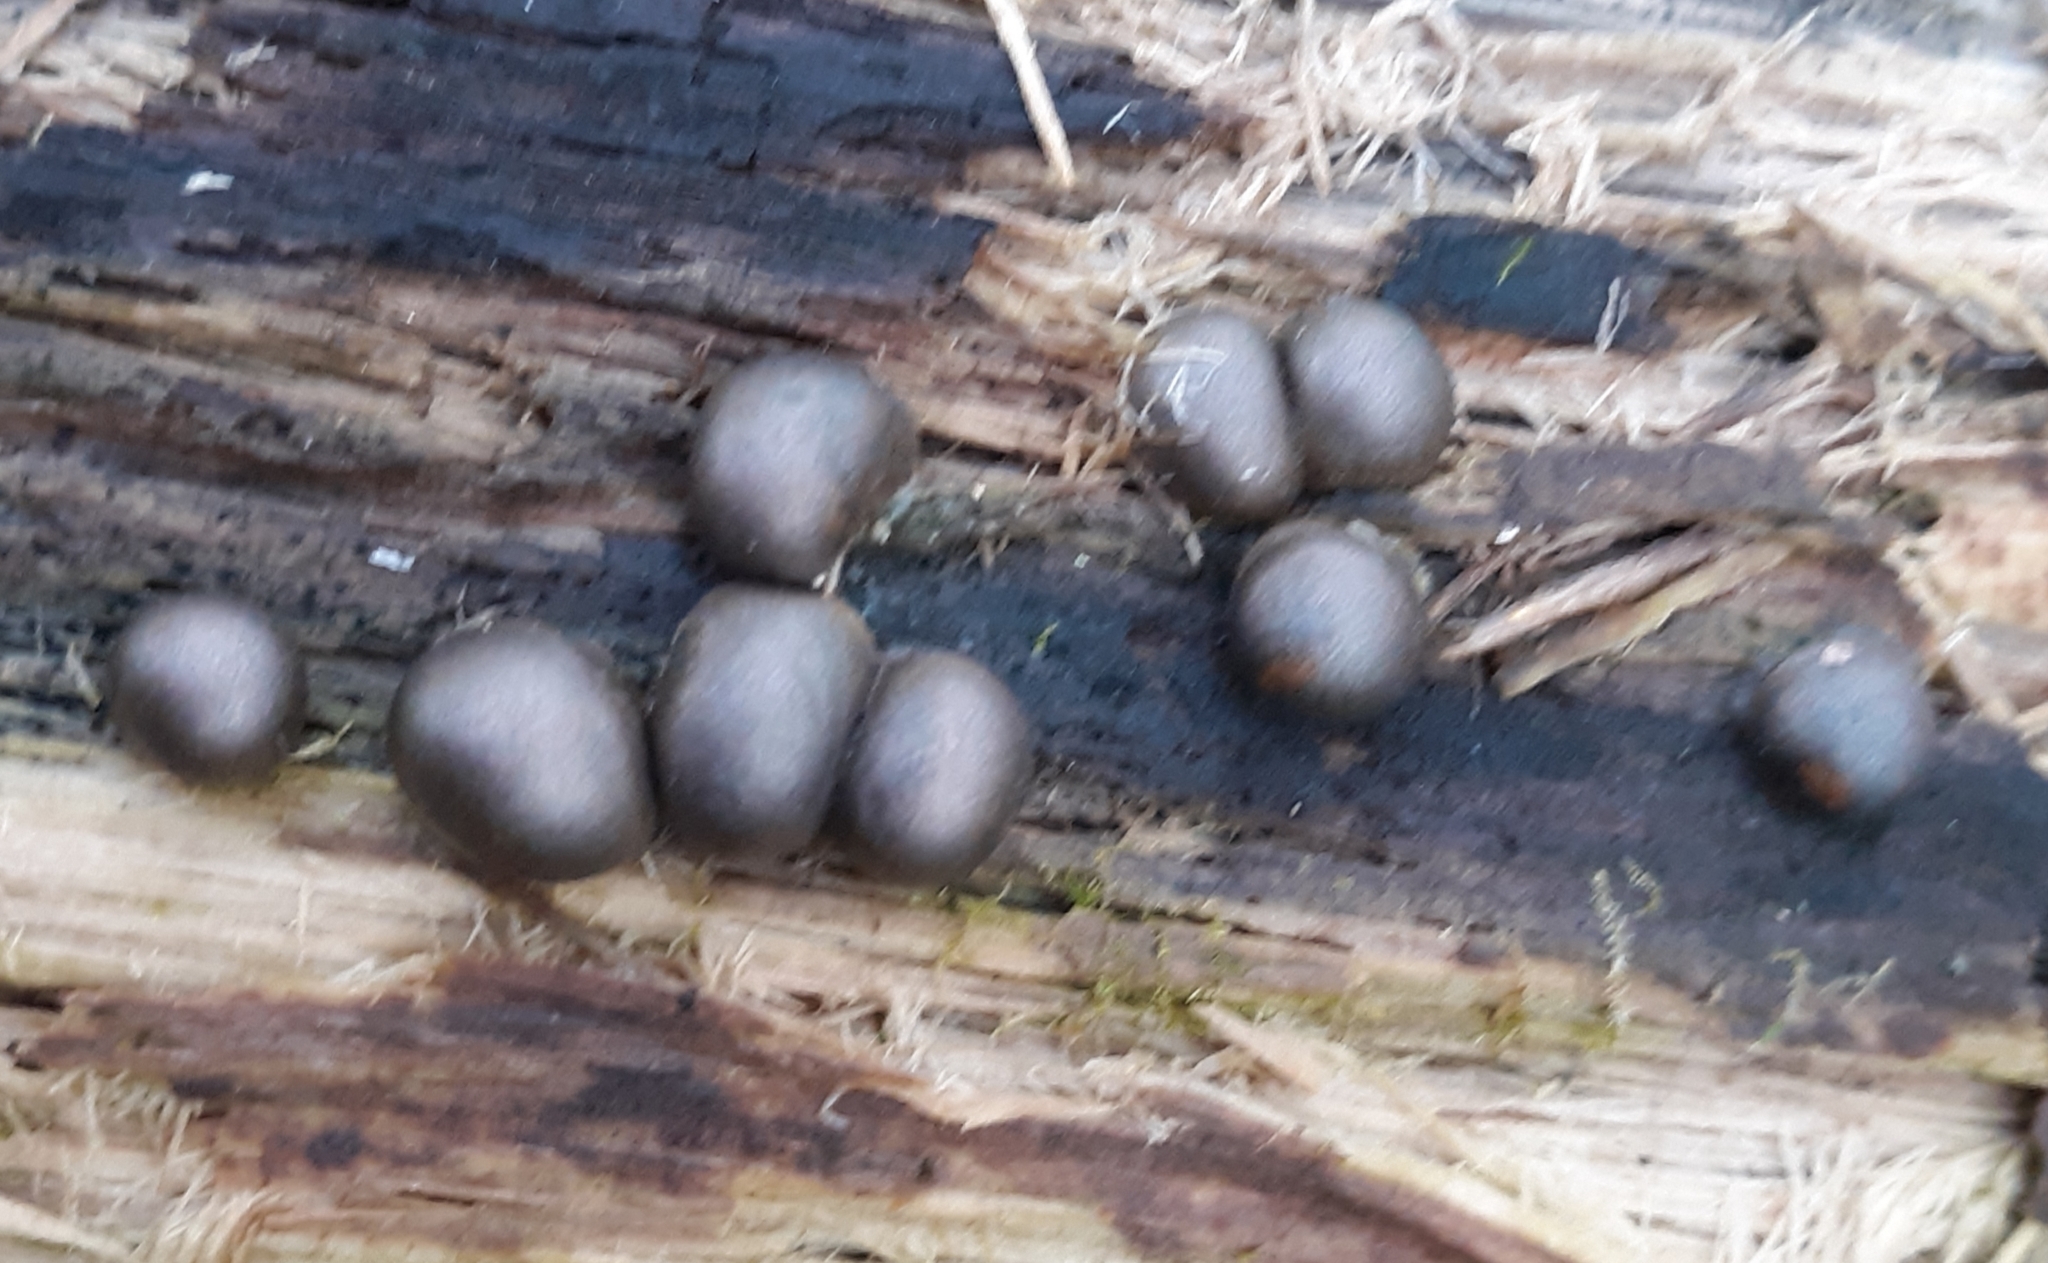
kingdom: Protozoa
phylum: Mycetozoa
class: Myxomycetes
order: Cribrariales
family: Tubiferaceae
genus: Lycogala
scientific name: Lycogala epidendrum
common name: Wolf's milk
